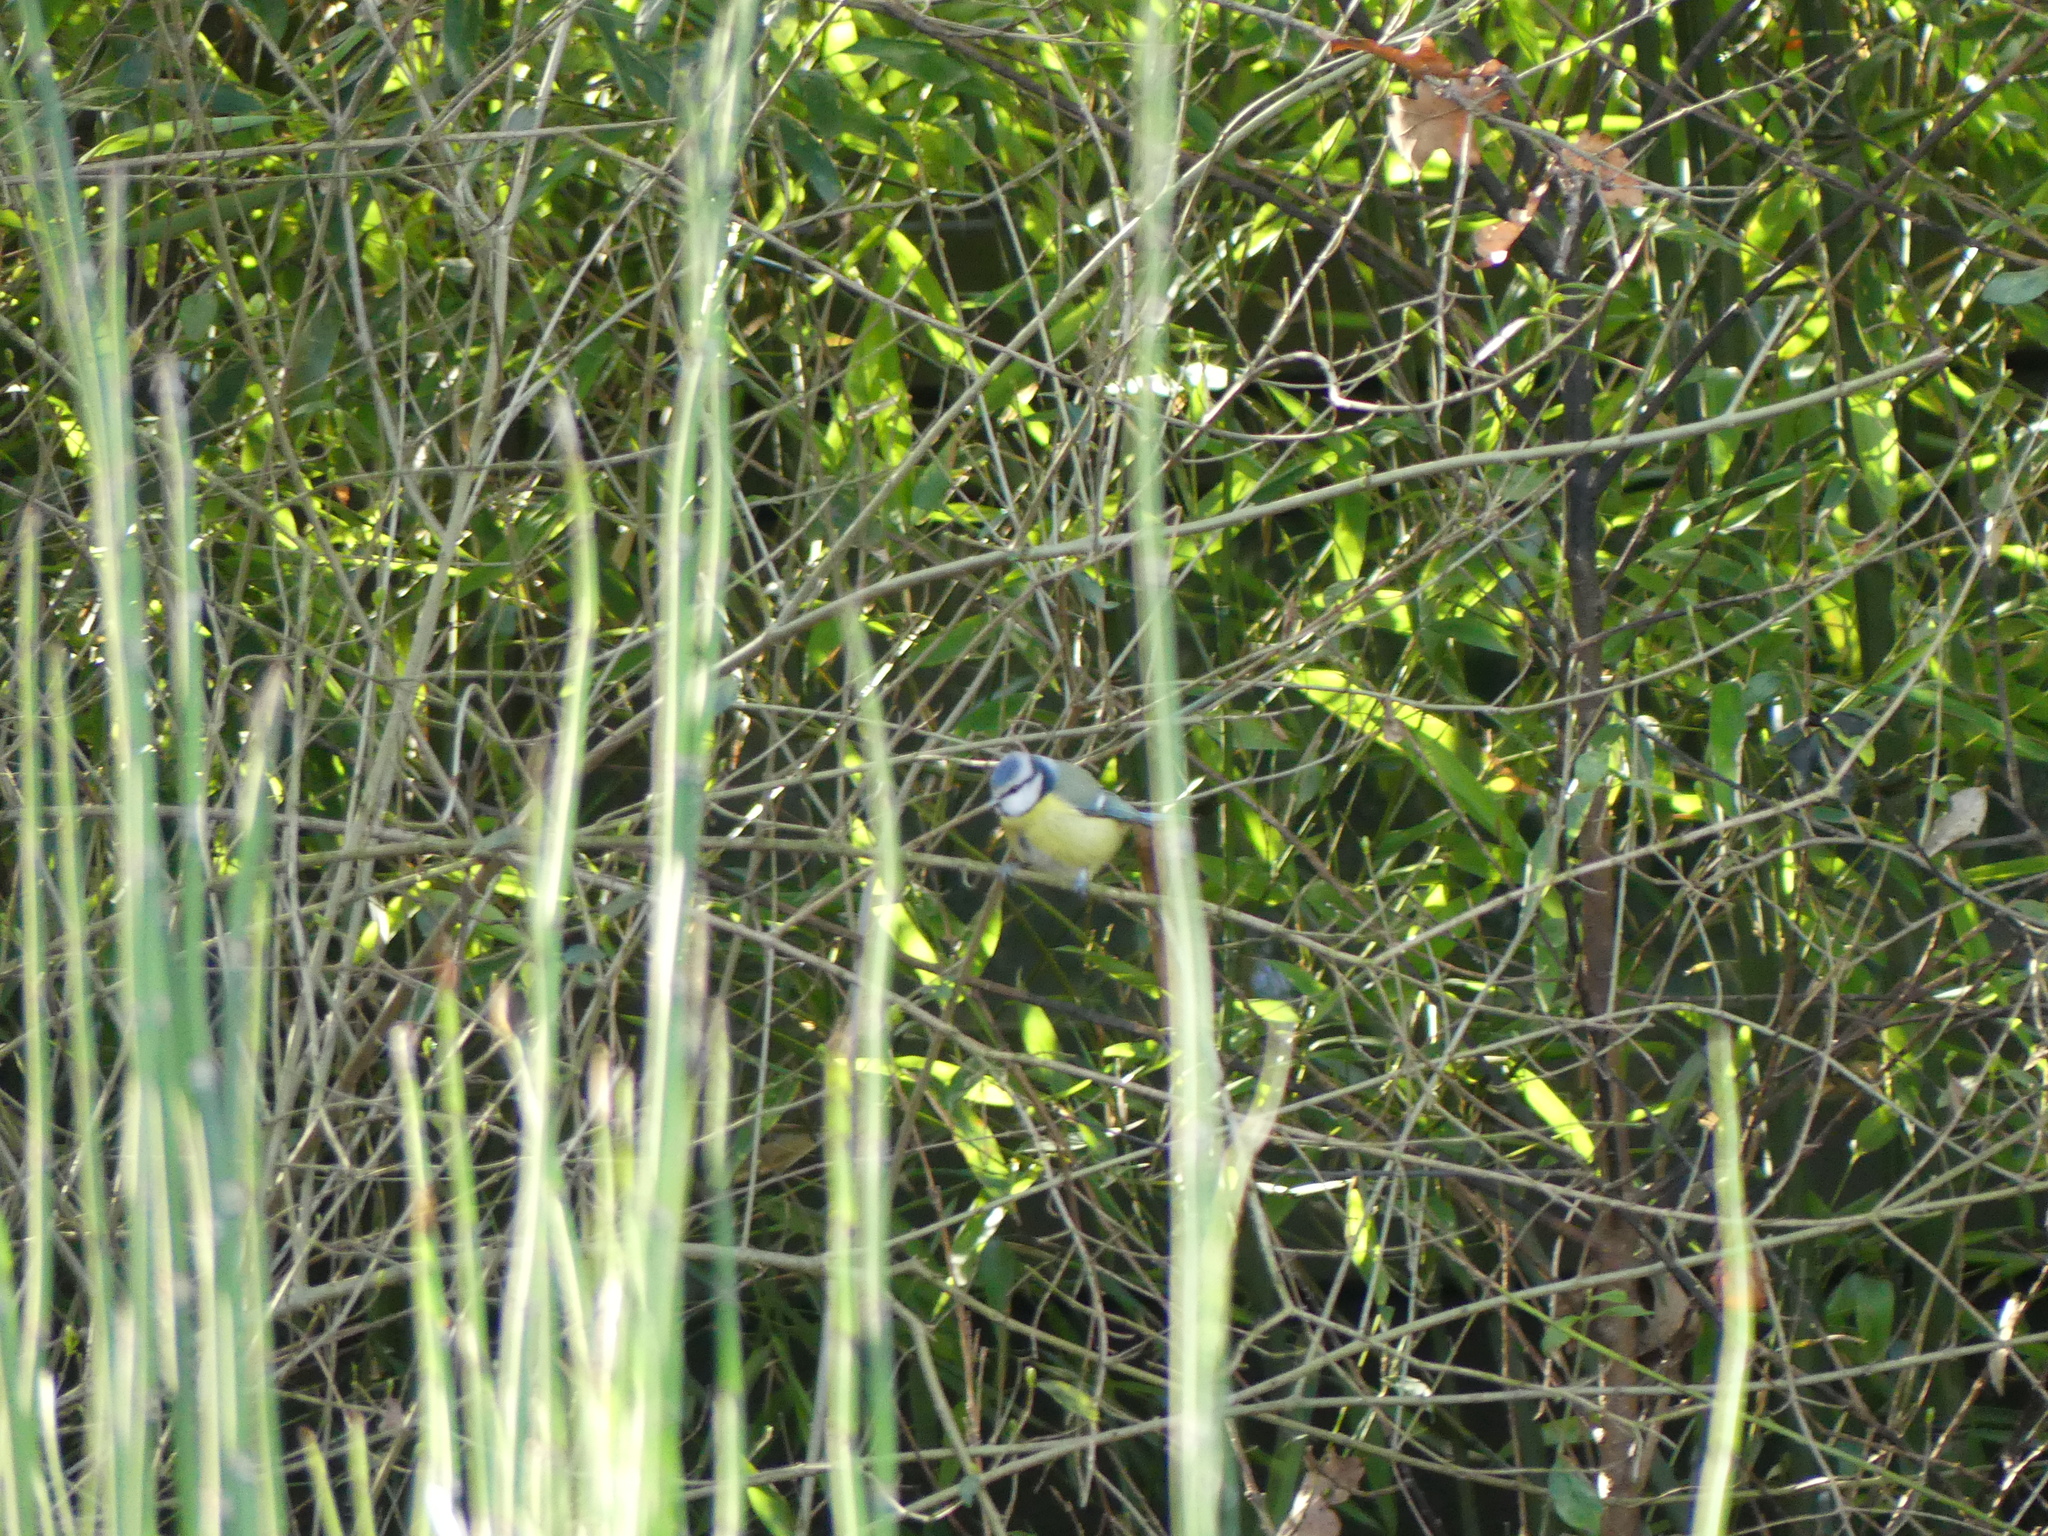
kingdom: Animalia
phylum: Chordata
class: Aves
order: Passeriformes
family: Paridae
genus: Cyanistes
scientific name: Cyanistes caeruleus
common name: Eurasian blue tit
